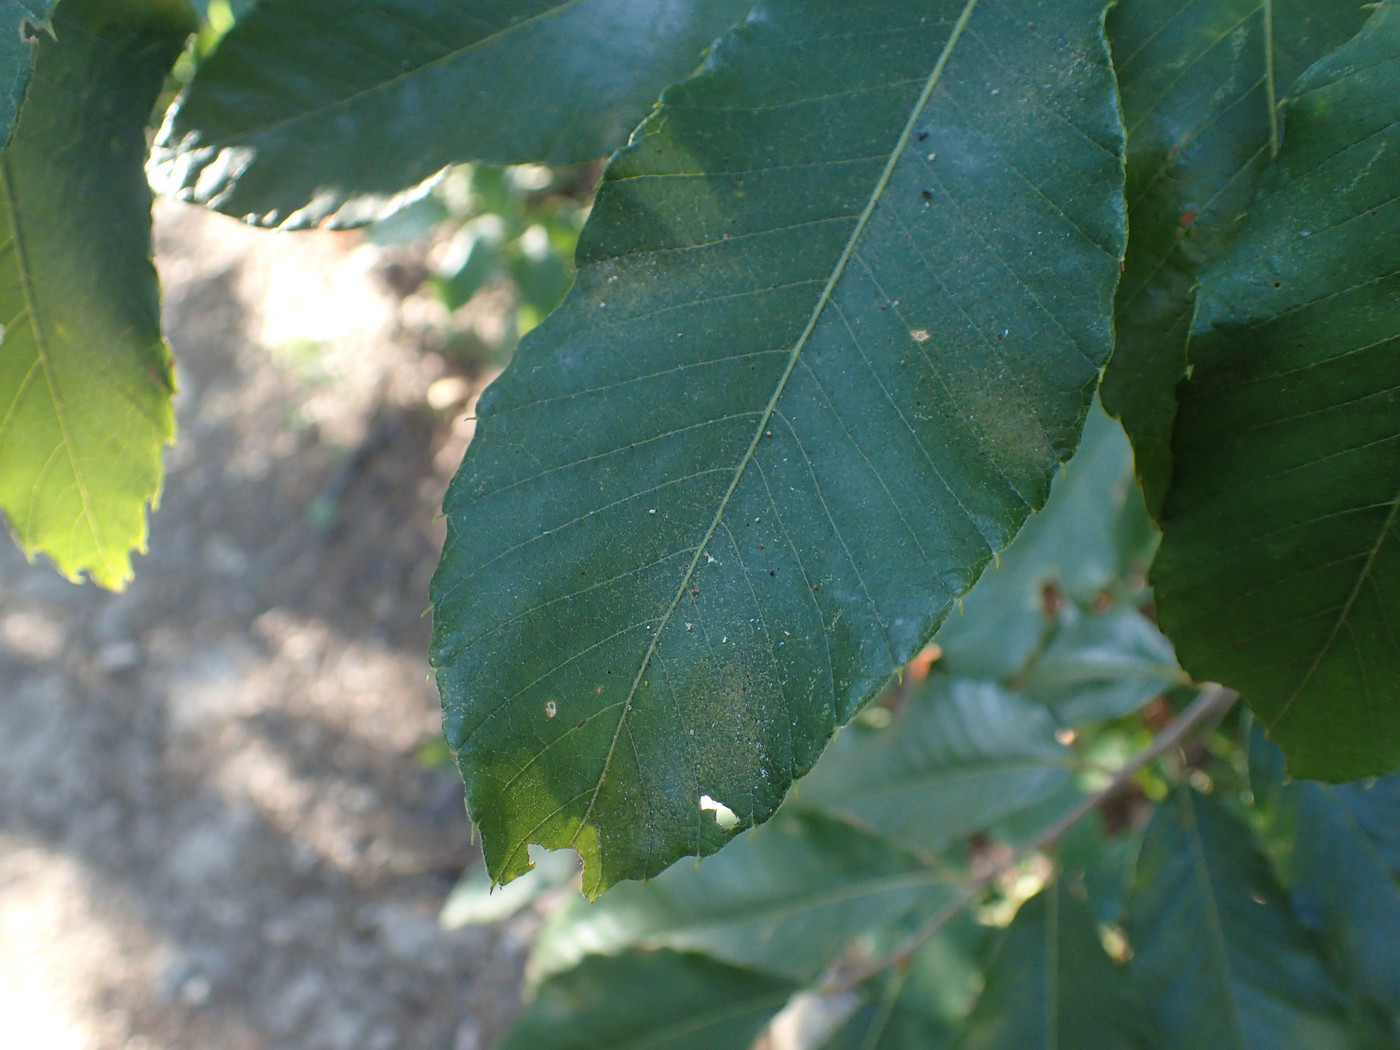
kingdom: Plantae
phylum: Tracheophyta
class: Magnoliopsida
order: Fagales
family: Fagaceae
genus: Castanea
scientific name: Castanea pumila
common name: Chinkapin
